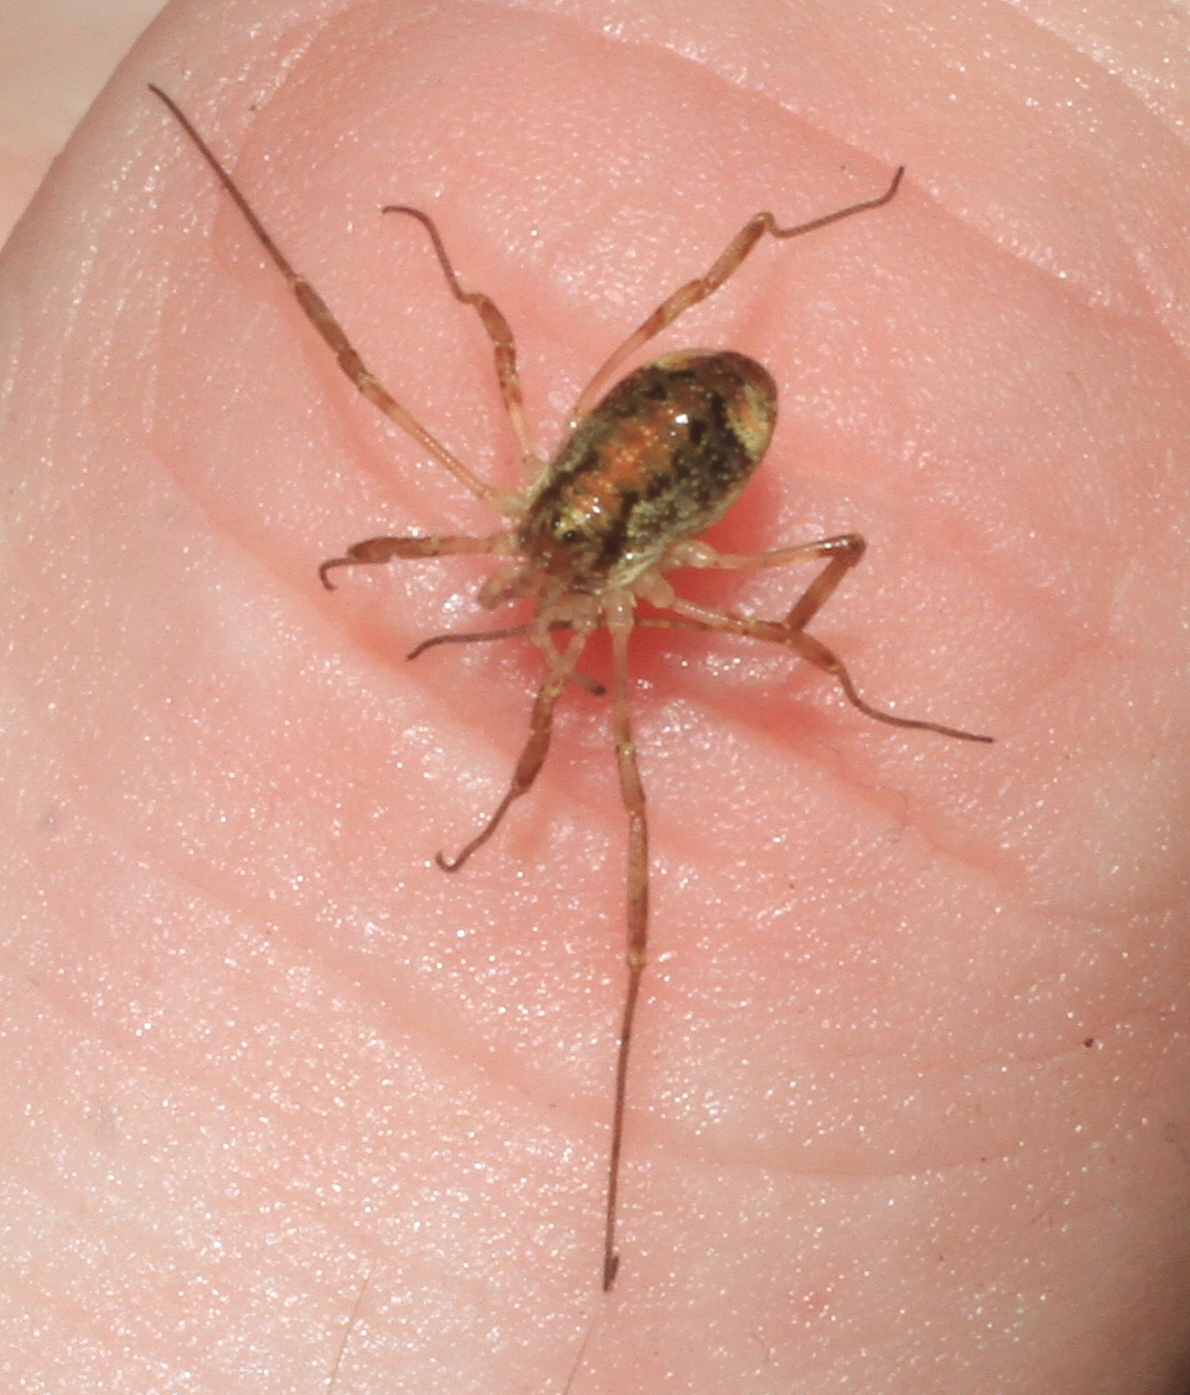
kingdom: Animalia
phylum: Arthropoda
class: Arachnida
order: Opiliones
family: Phalangiidae
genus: Paroligolophus
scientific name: Paroligolophus agrestis
